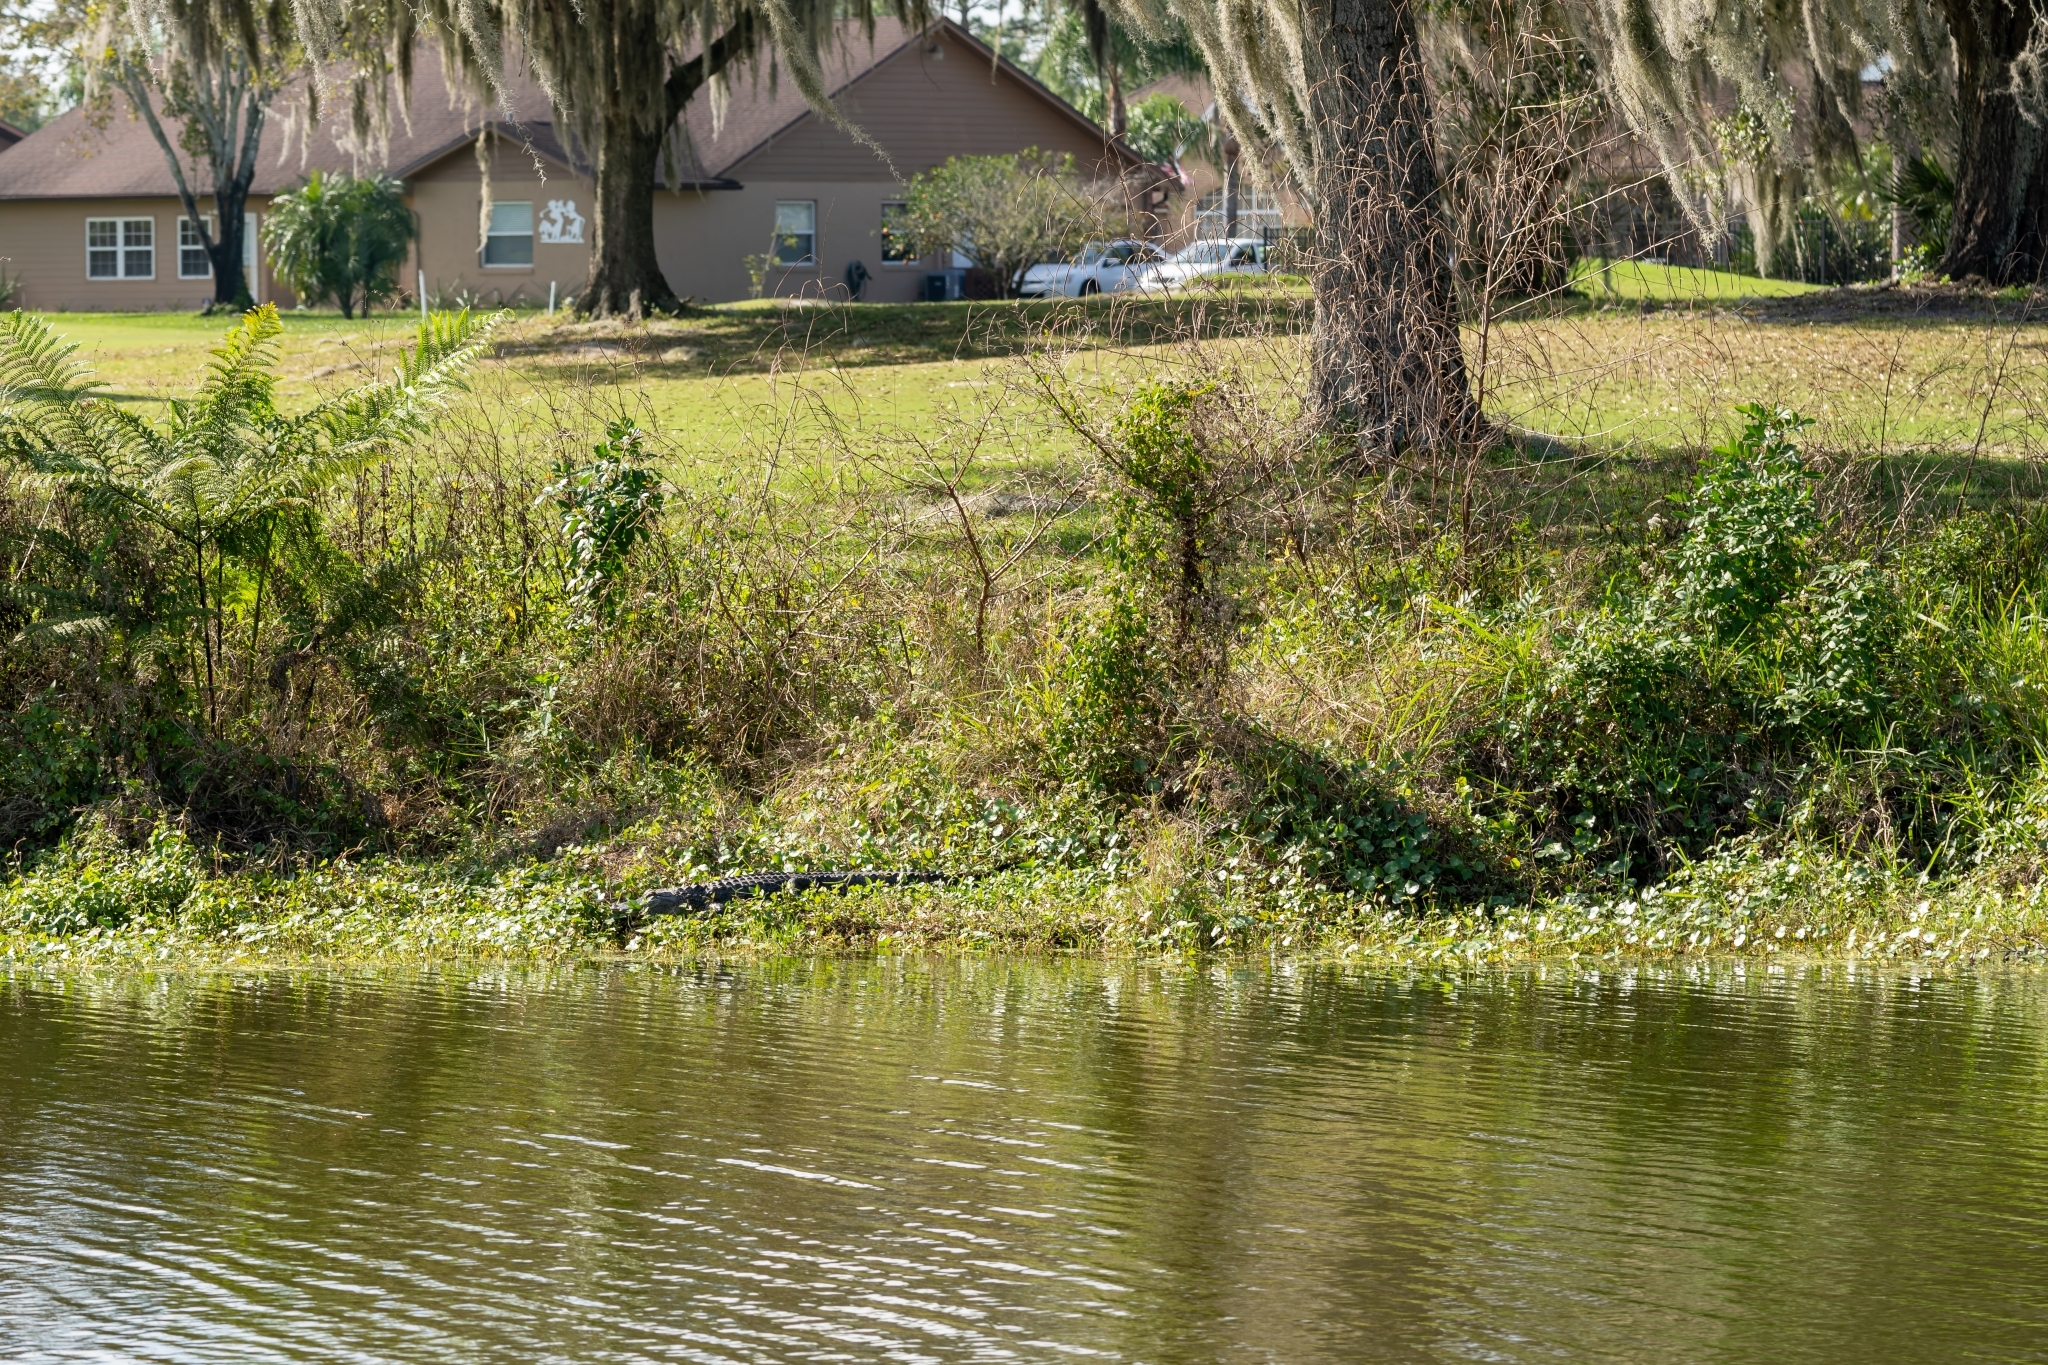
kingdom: Animalia
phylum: Chordata
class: Crocodylia
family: Alligatoridae
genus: Alligator
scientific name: Alligator mississippiensis
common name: American alligator
